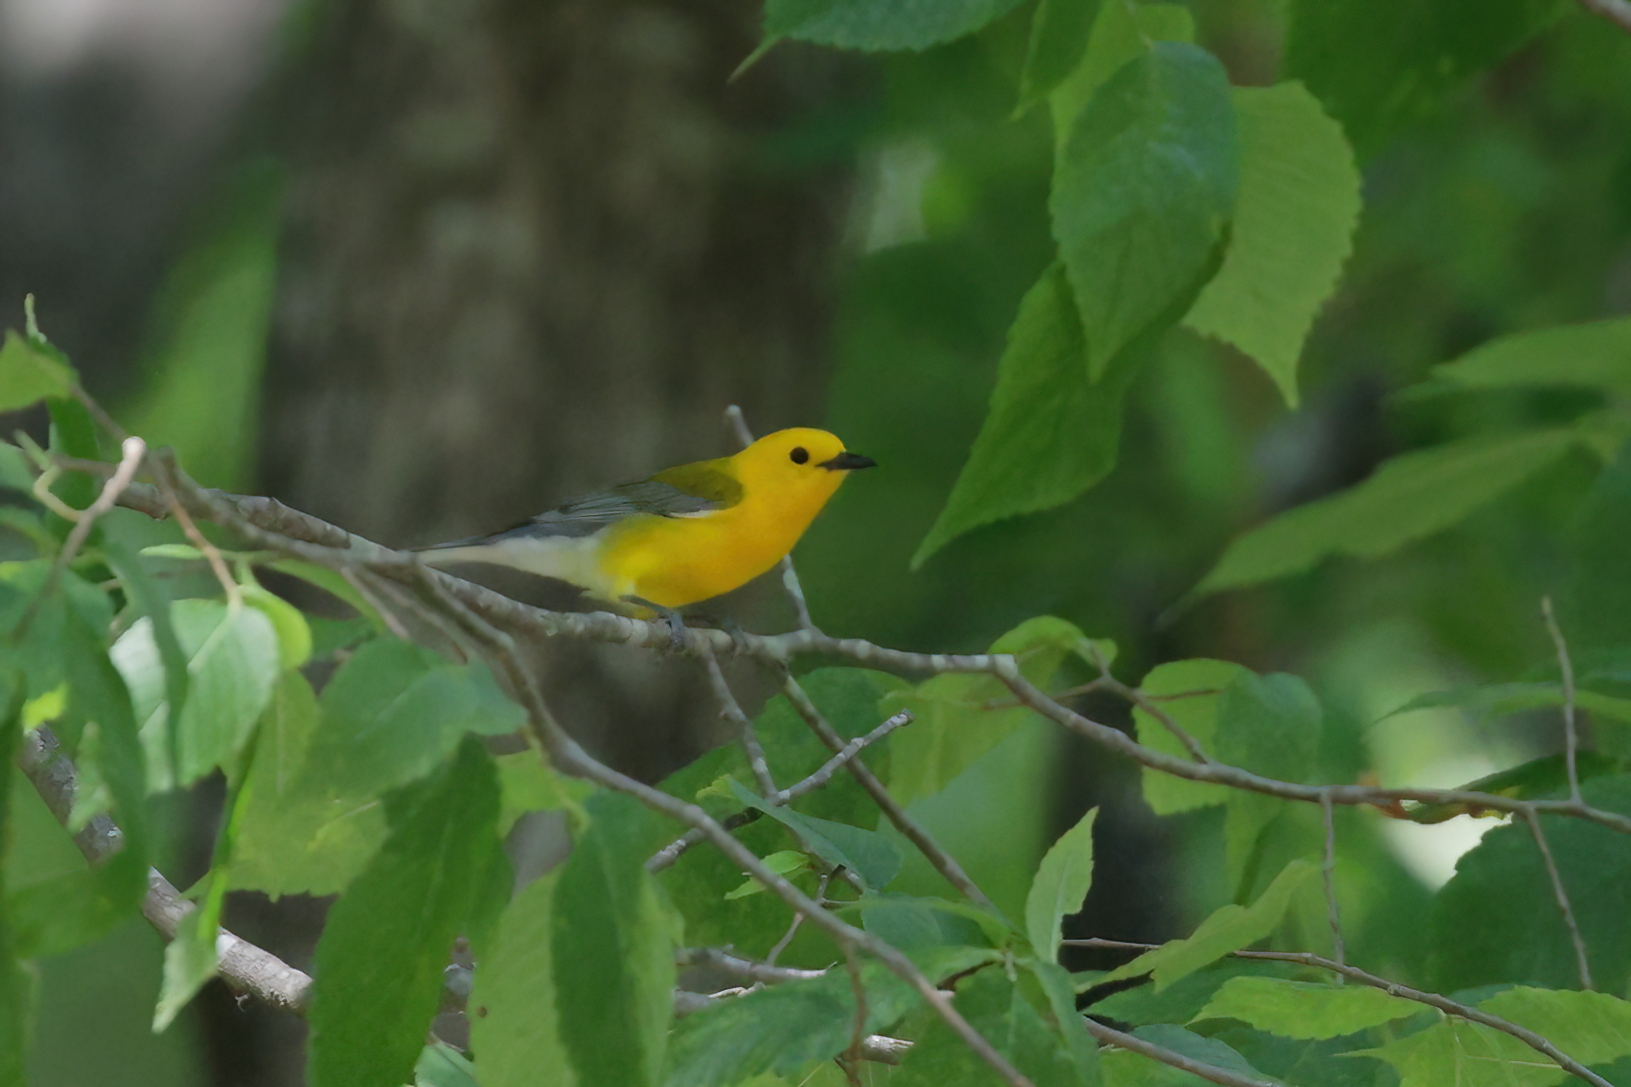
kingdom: Animalia
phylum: Chordata
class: Aves
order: Passeriformes
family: Parulidae
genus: Protonotaria
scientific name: Protonotaria citrea
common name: Prothonotary warbler
